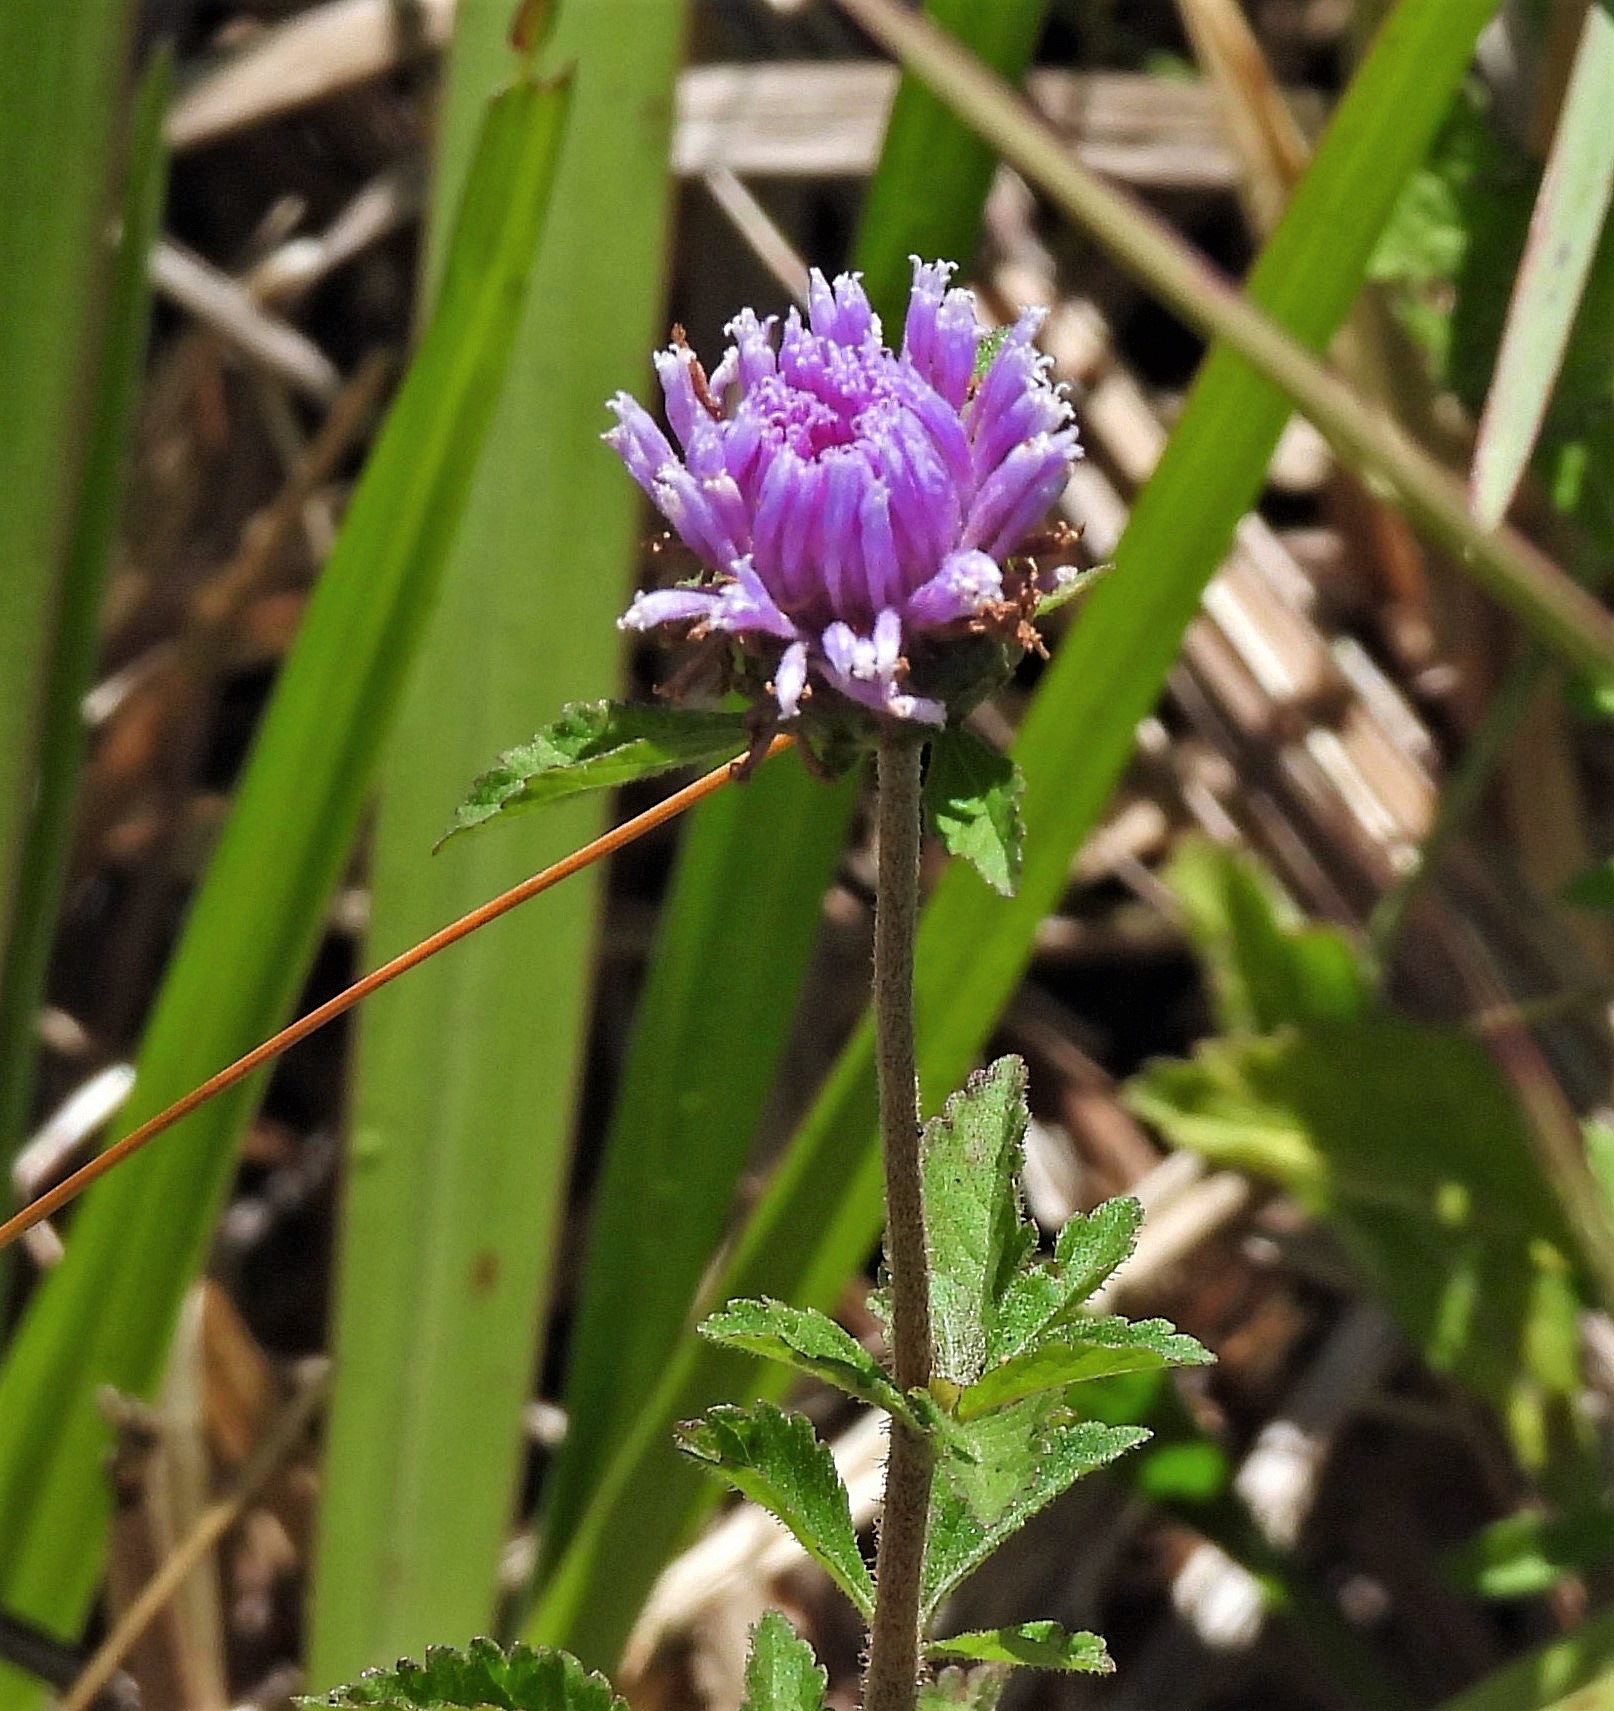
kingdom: Plantae
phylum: Tracheophyta
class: Magnoliopsida
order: Asterales
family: Asteraceae
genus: Centratherum
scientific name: Centratherum punctatum
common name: Larkdaisy
